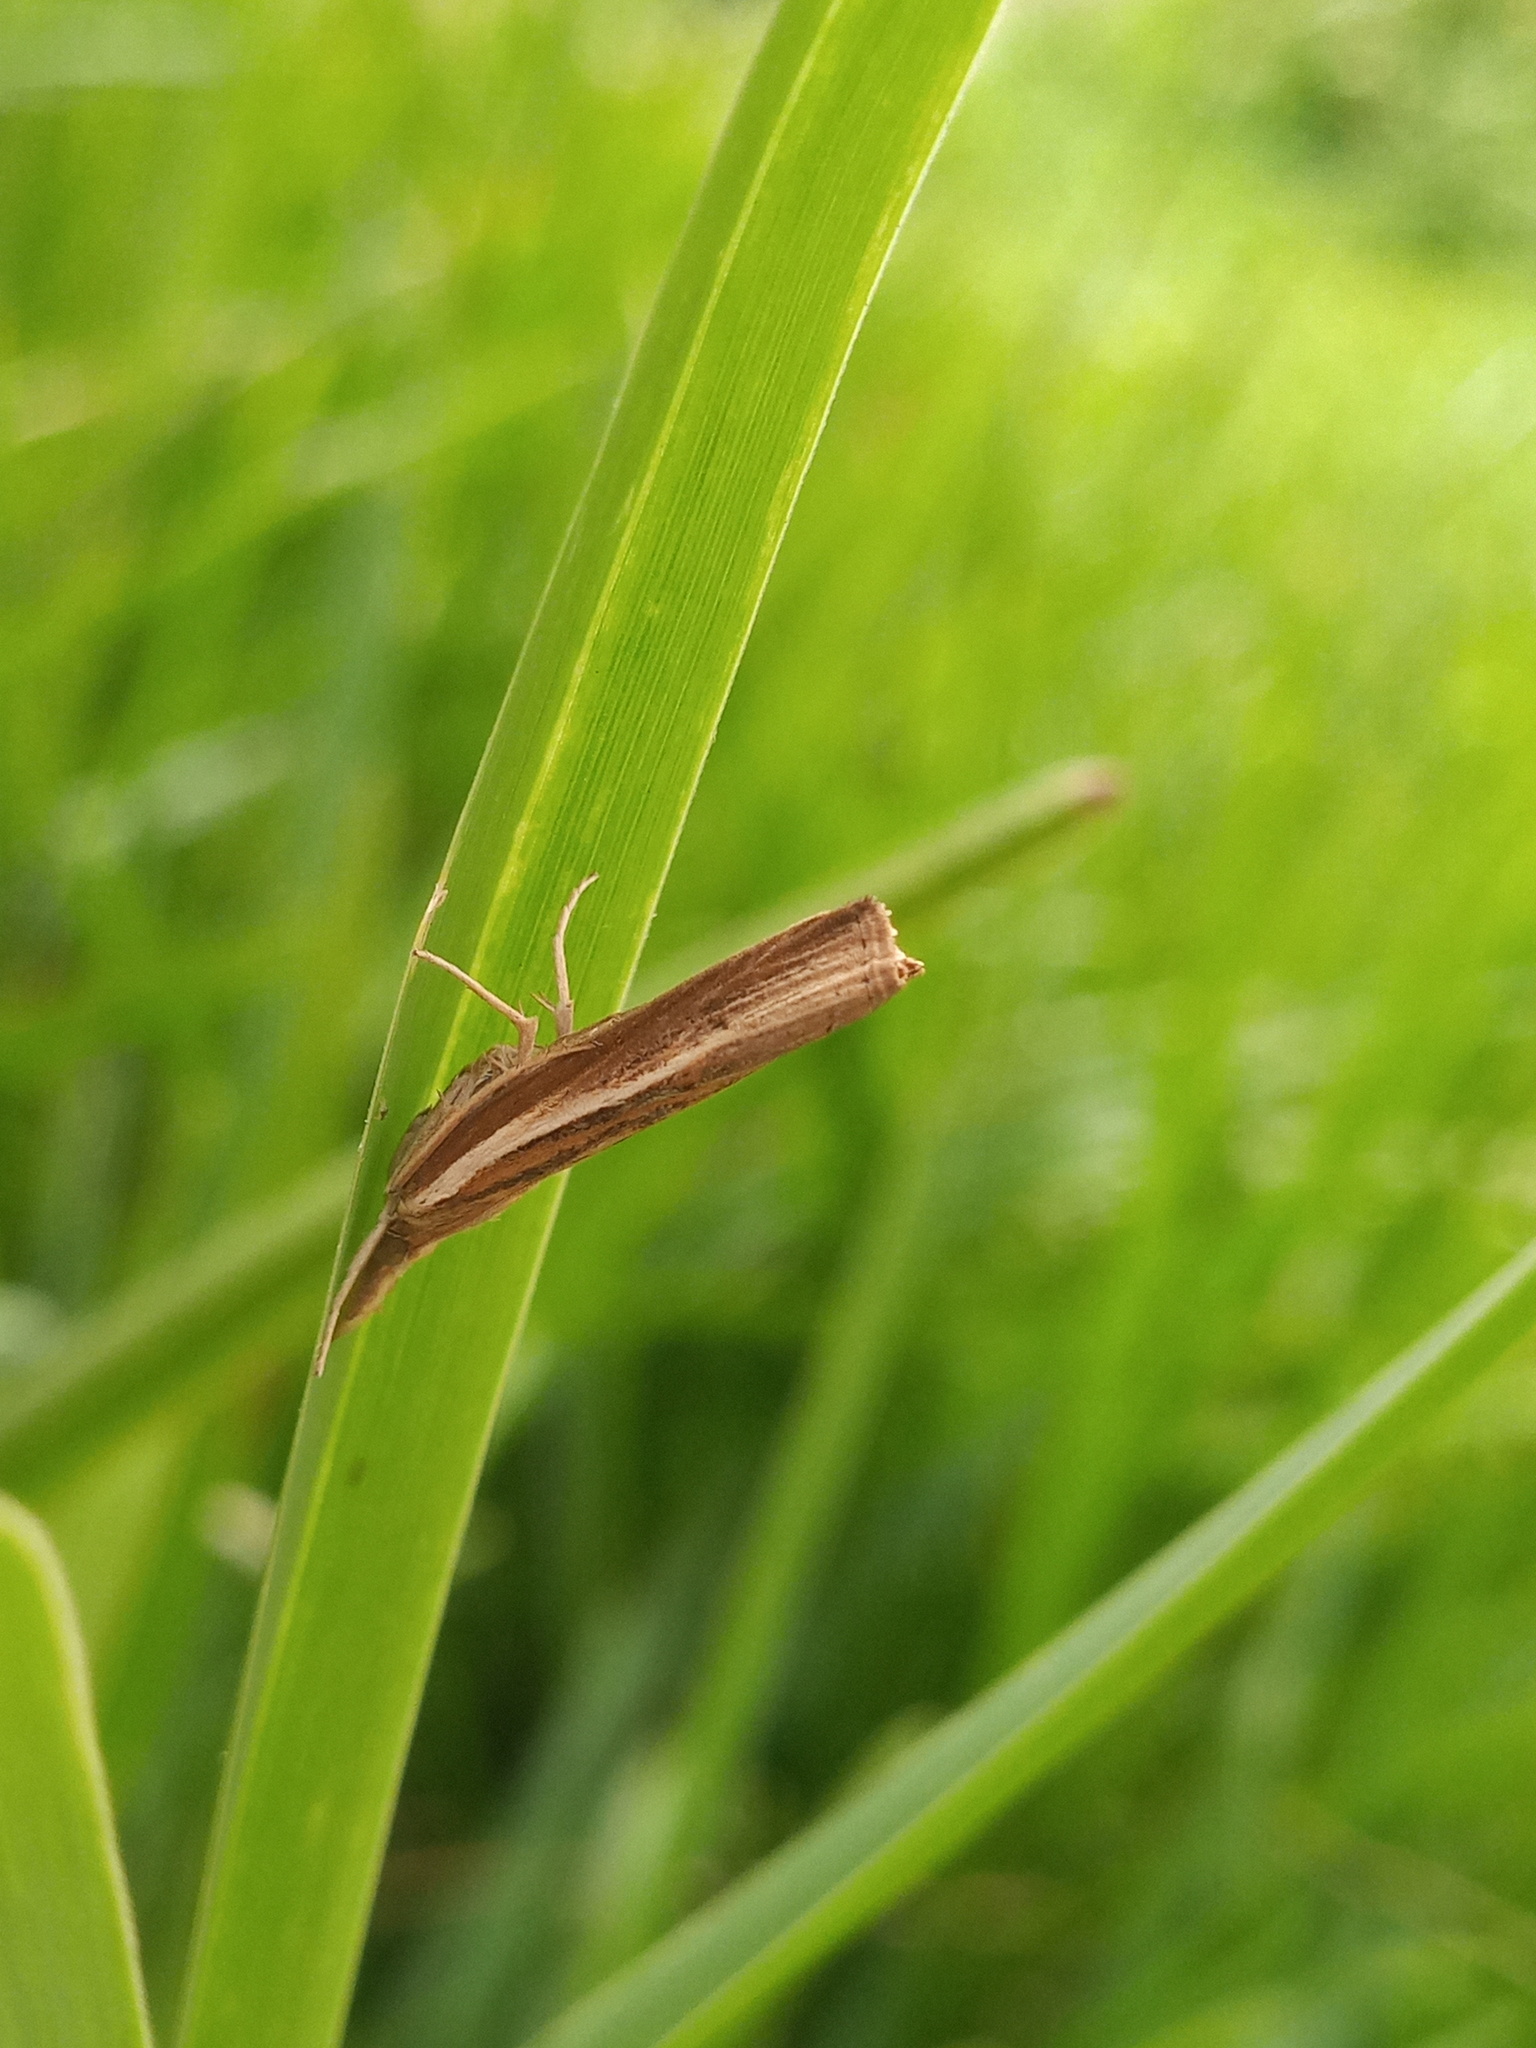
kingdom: Animalia
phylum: Arthropoda
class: Insecta
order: Lepidoptera
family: Crambidae
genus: Fissicrambus
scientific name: Fissicrambus fissiradiellus
